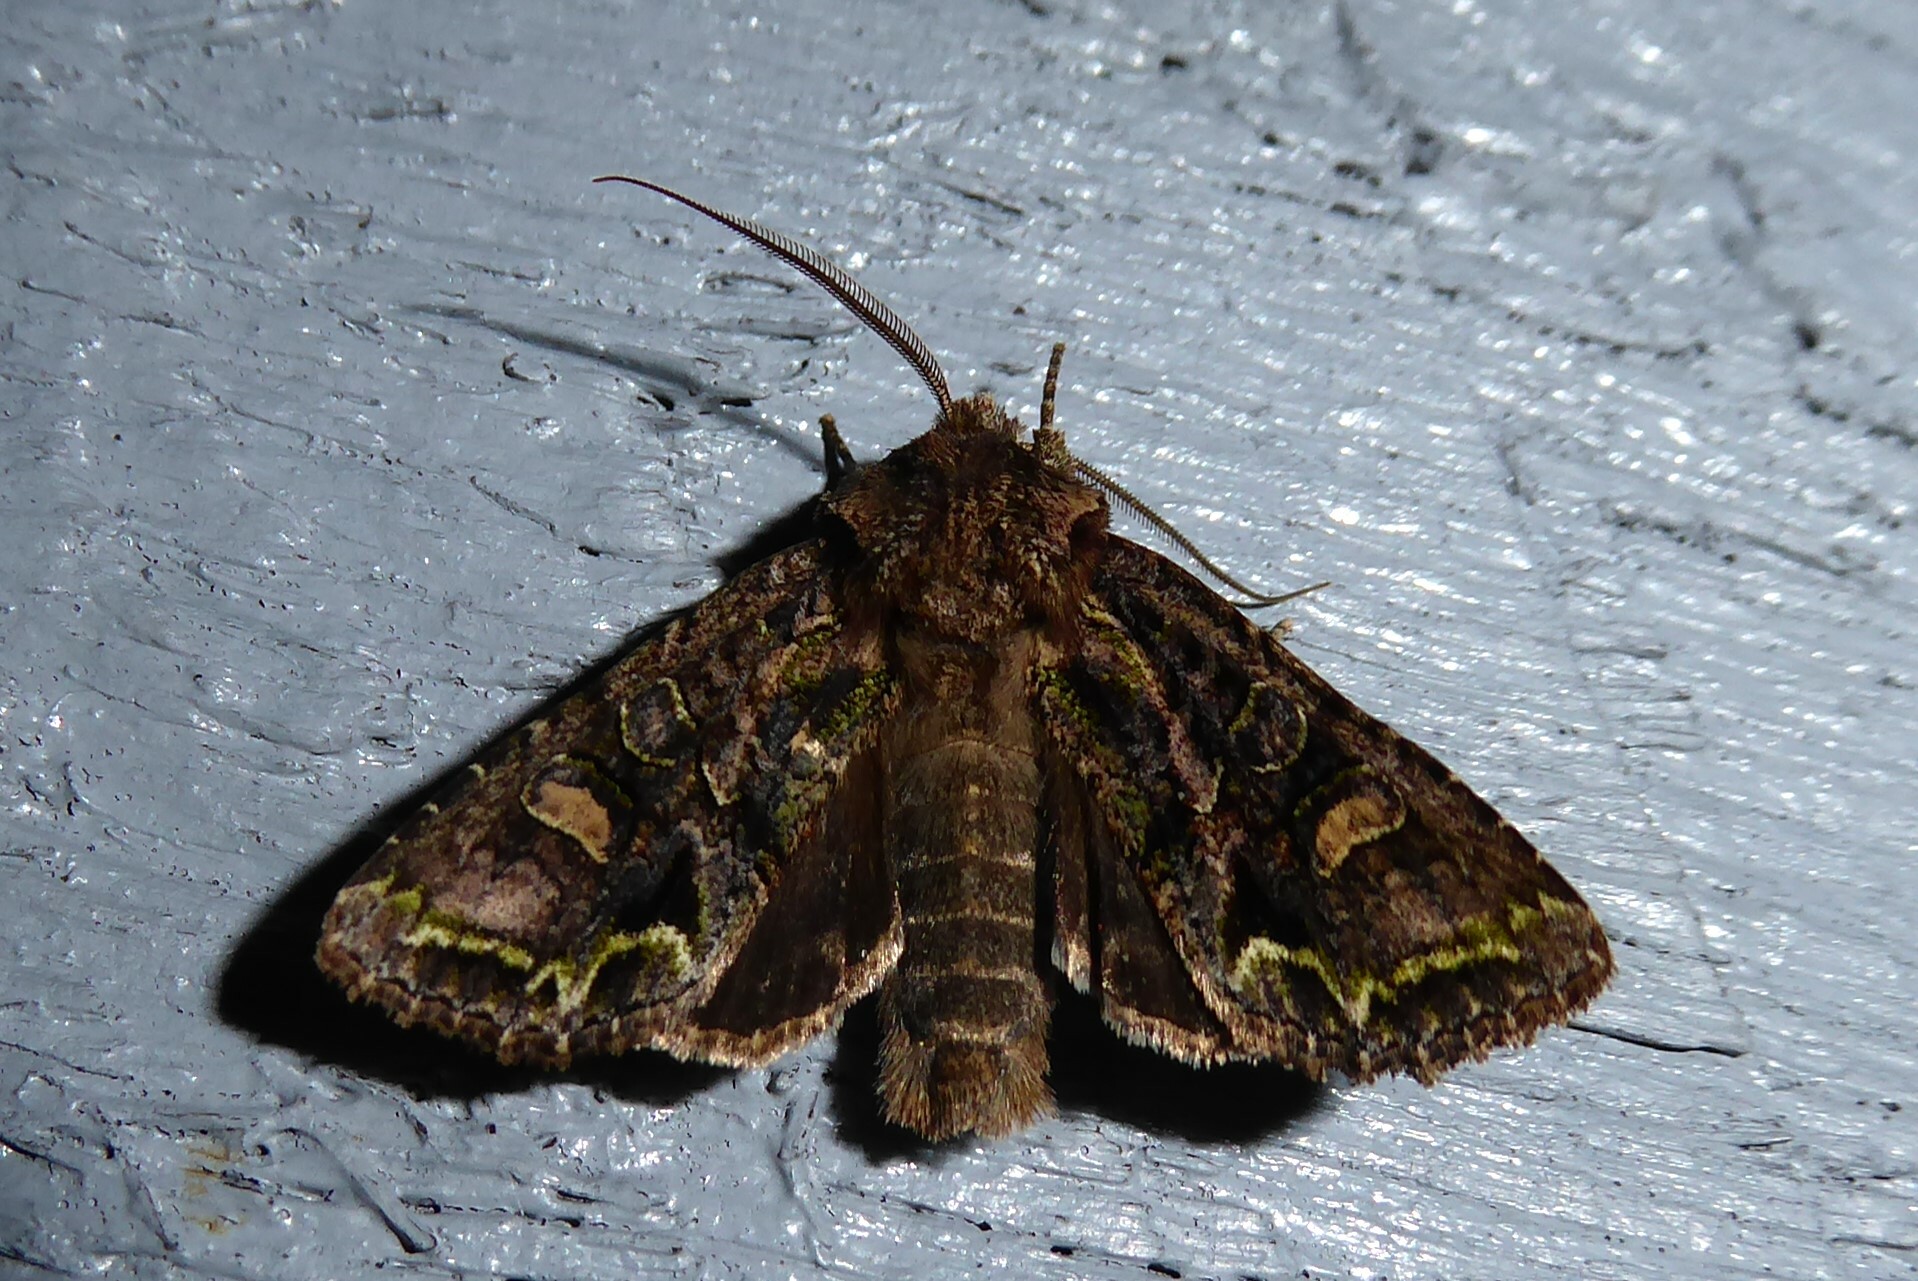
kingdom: Animalia
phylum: Arthropoda
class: Insecta
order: Lepidoptera
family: Noctuidae
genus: Ichneutica
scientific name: Ichneutica insignis
